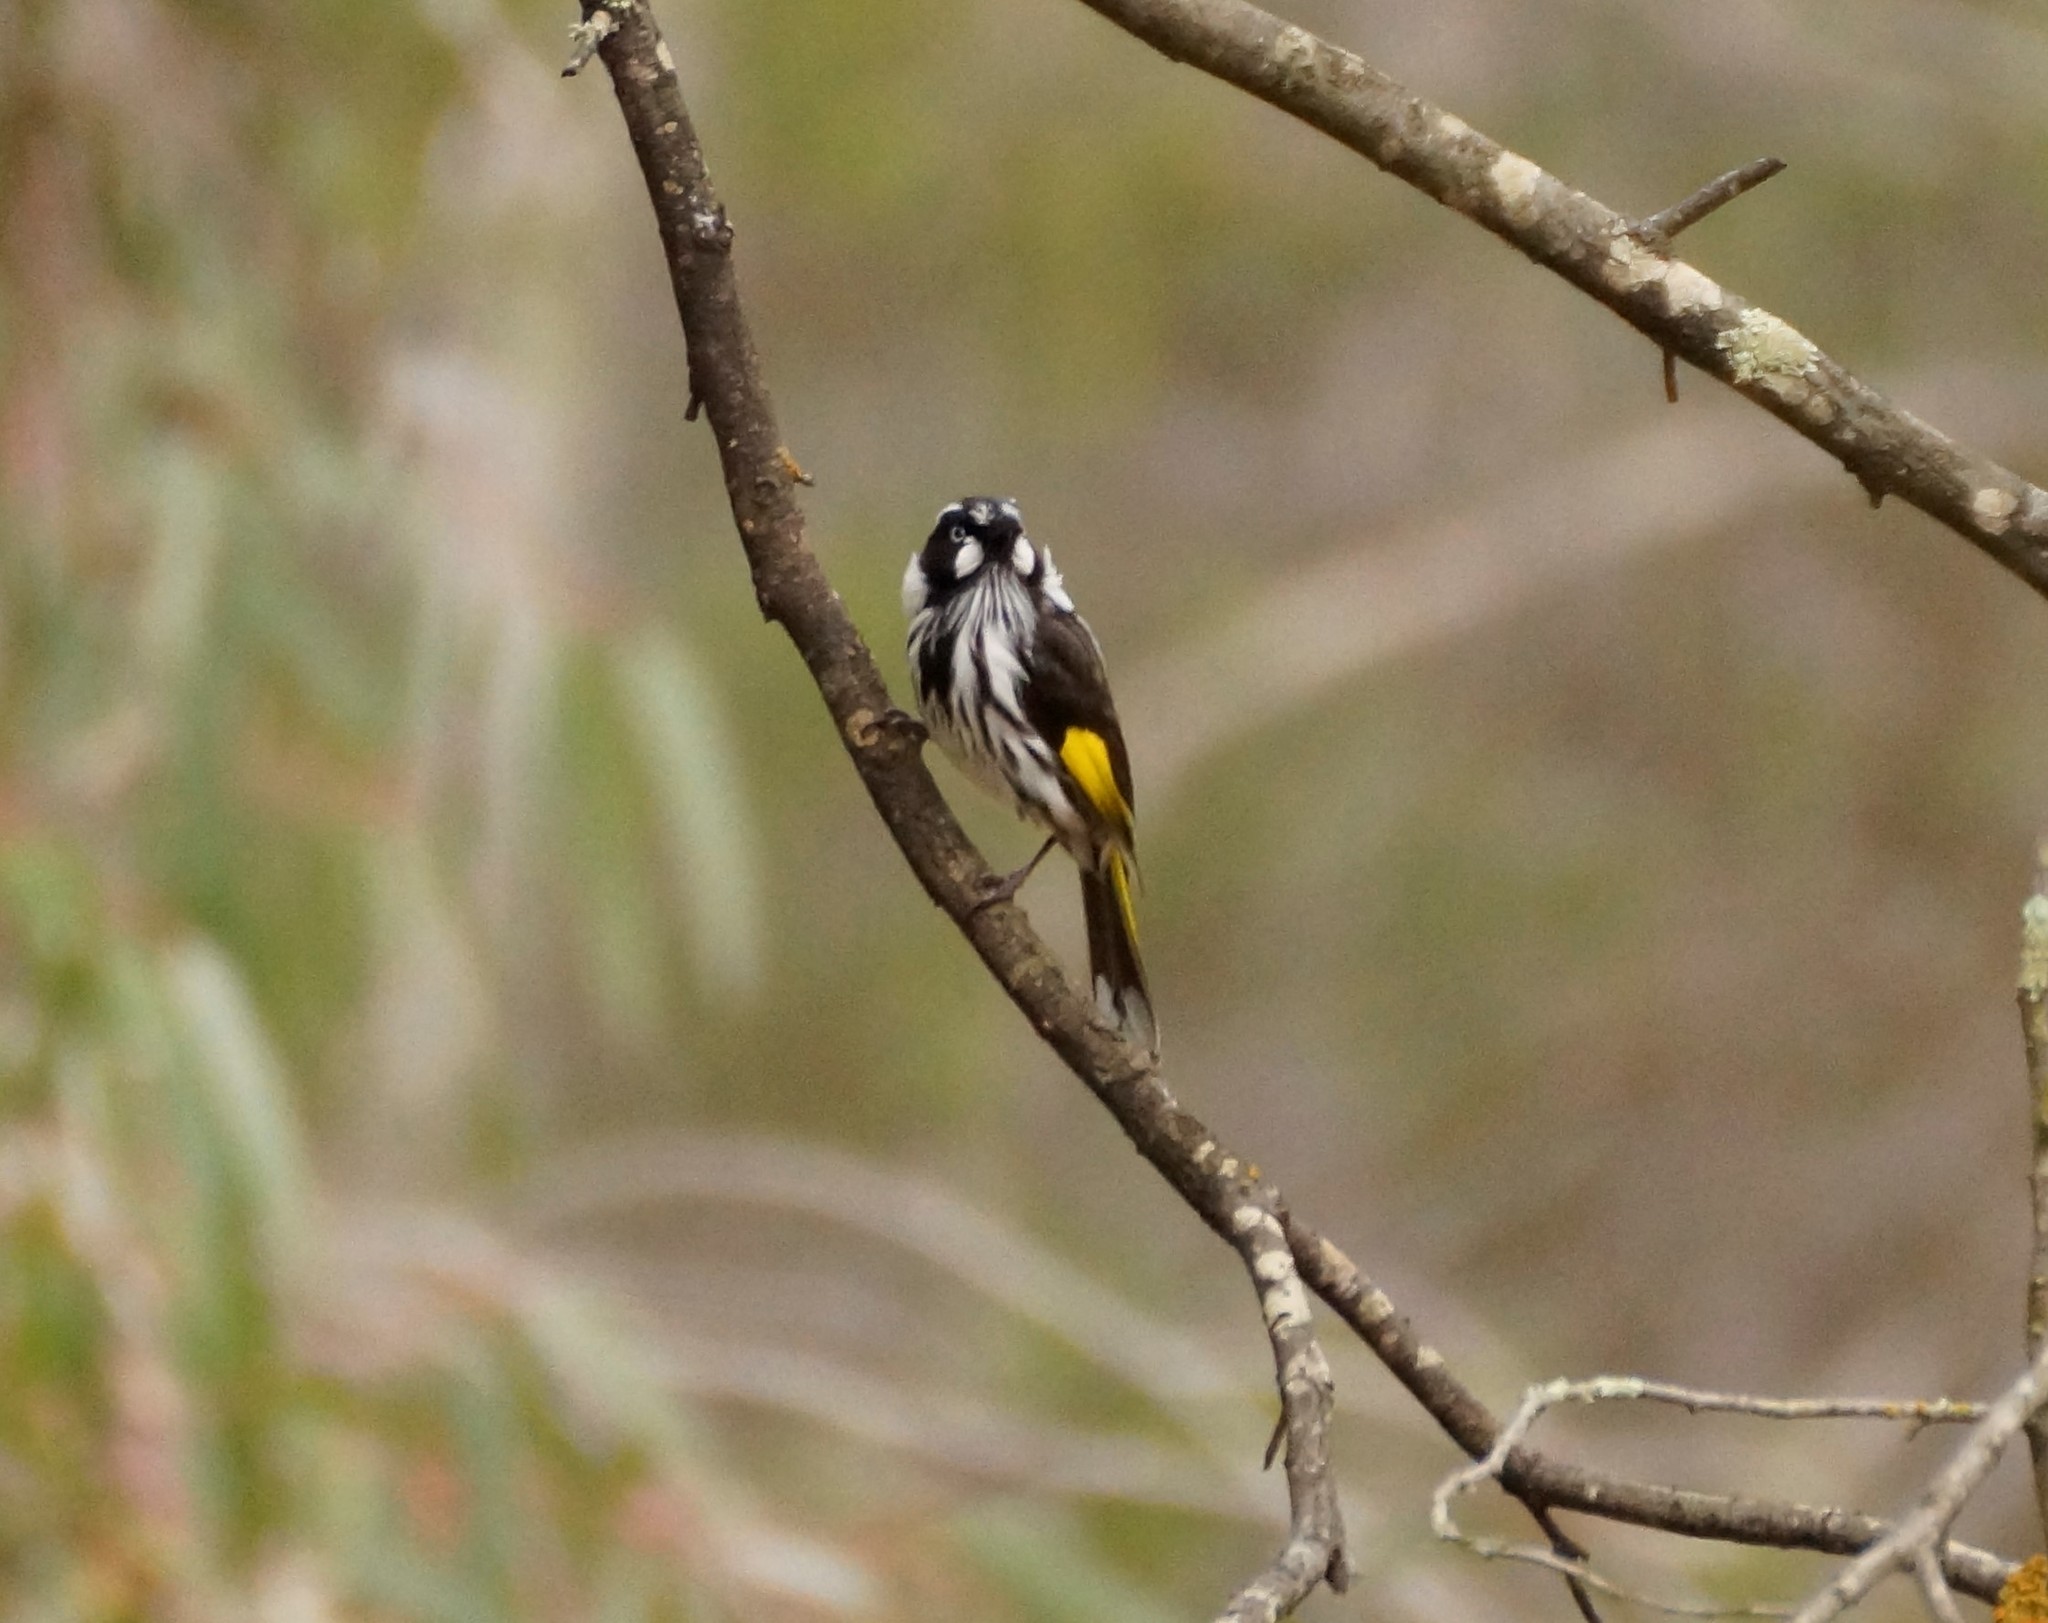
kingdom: Animalia
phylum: Chordata
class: Aves
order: Passeriformes
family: Meliphagidae
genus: Phylidonyris
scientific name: Phylidonyris novaehollandiae
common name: New holland honeyeater
